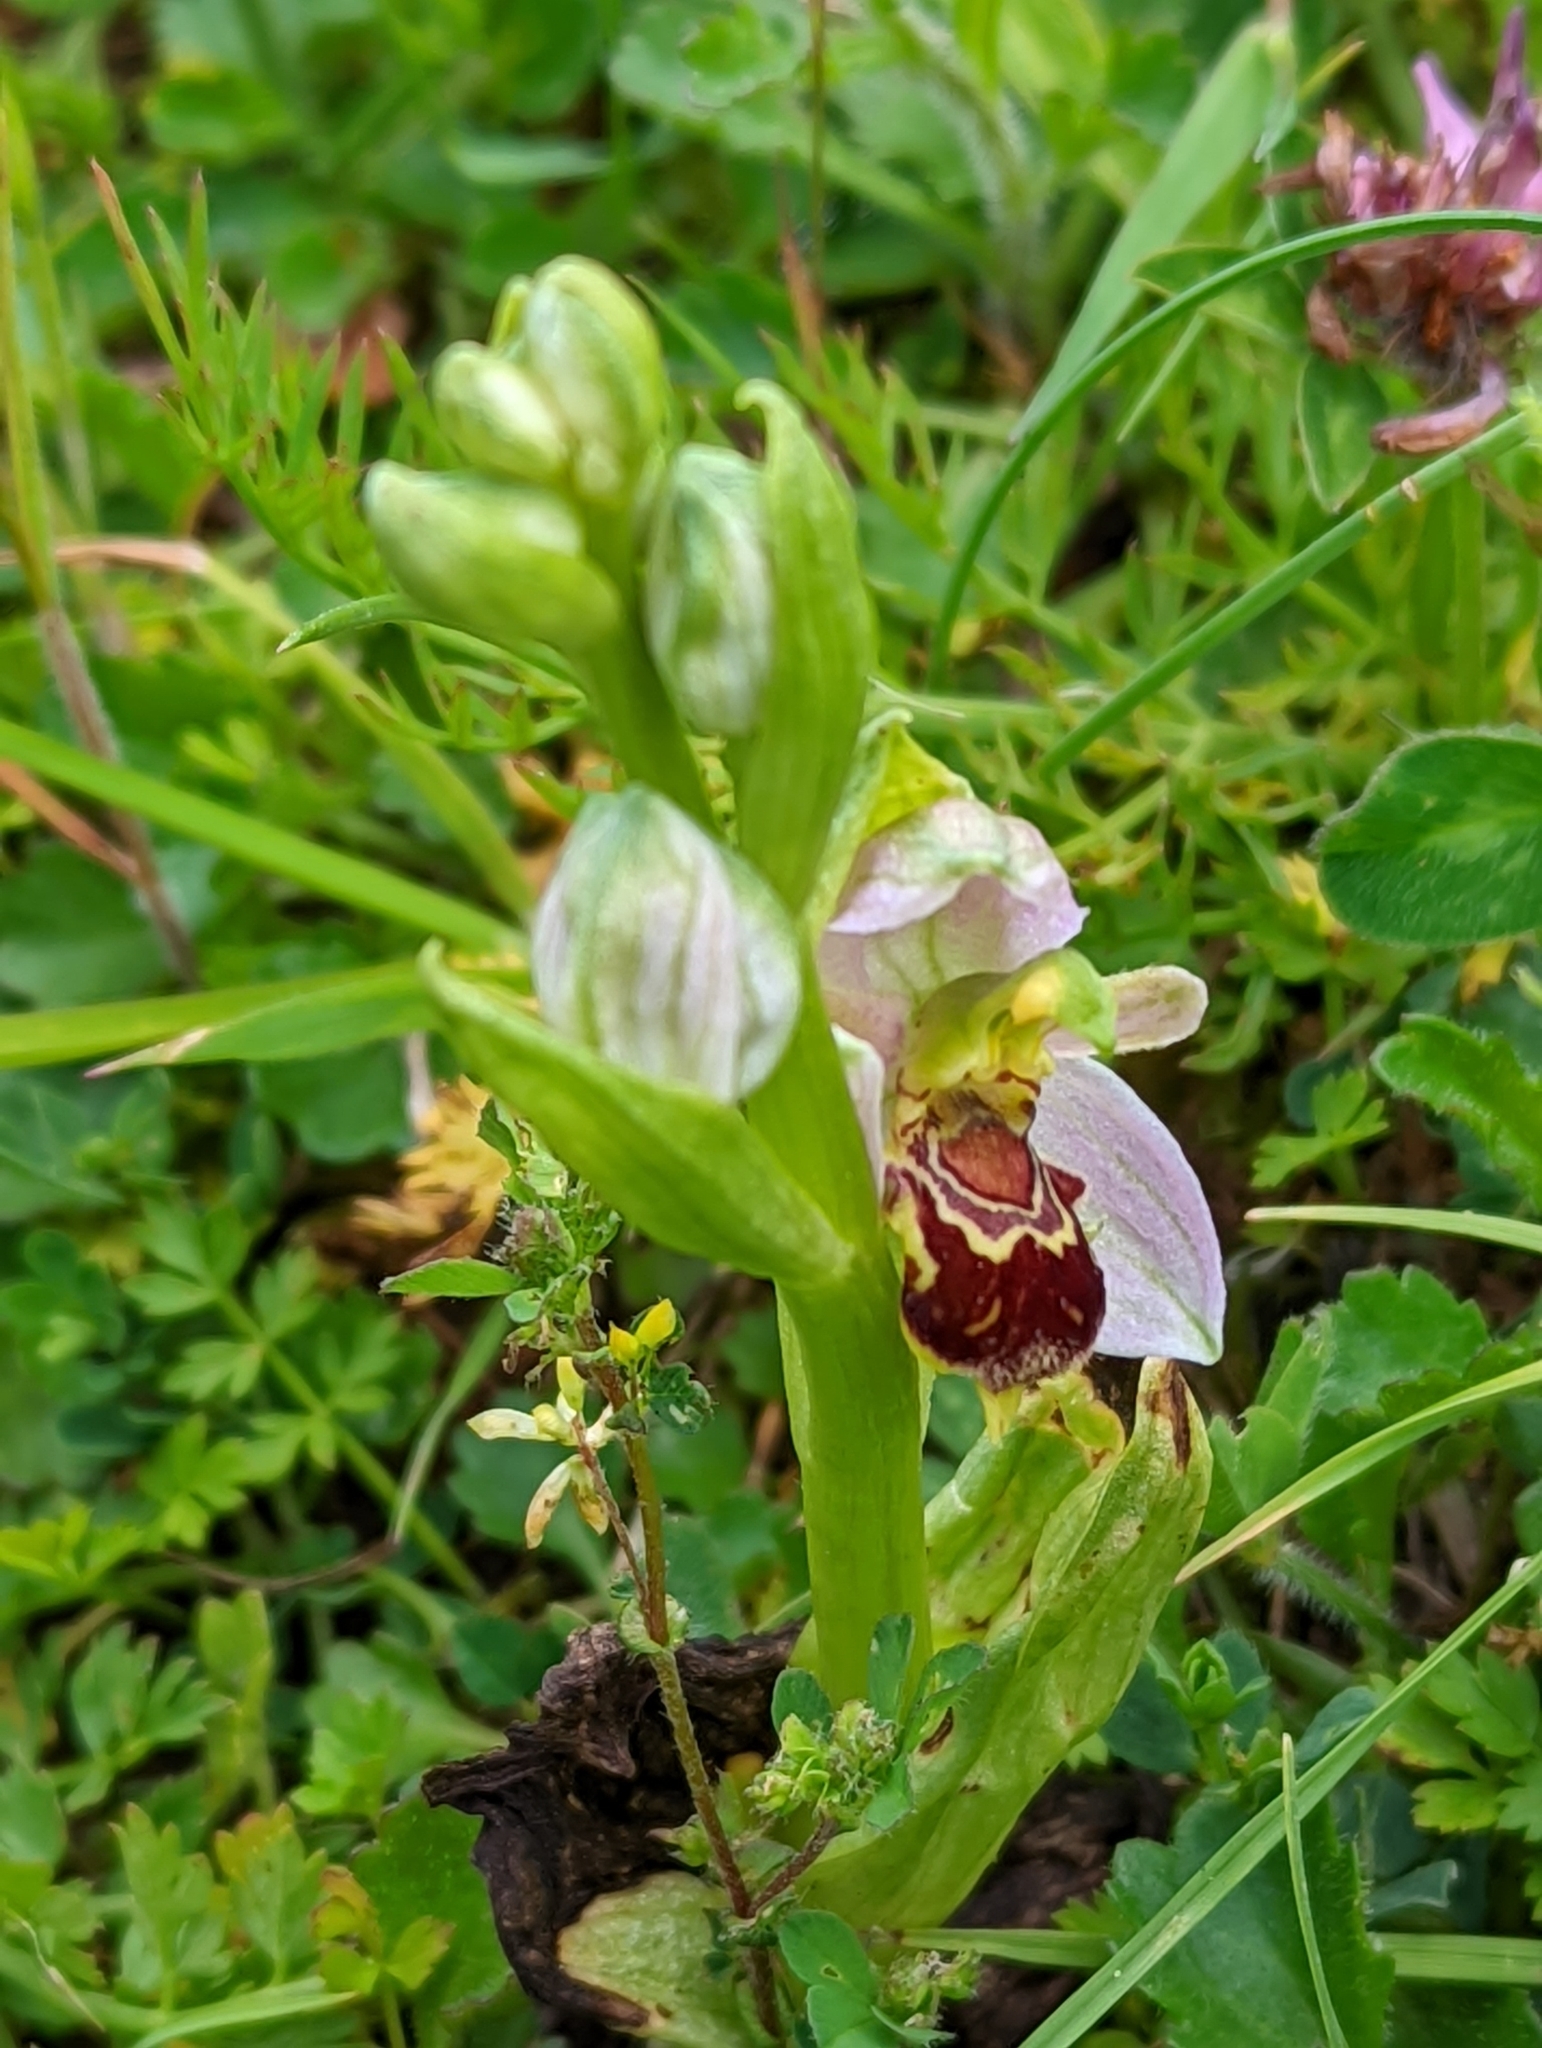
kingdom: Plantae
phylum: Tracheophyta
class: Liliopsida
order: Asparagales
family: Orchidaceae
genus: Ophrys
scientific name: Ophrys apifera
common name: Bee orchid
